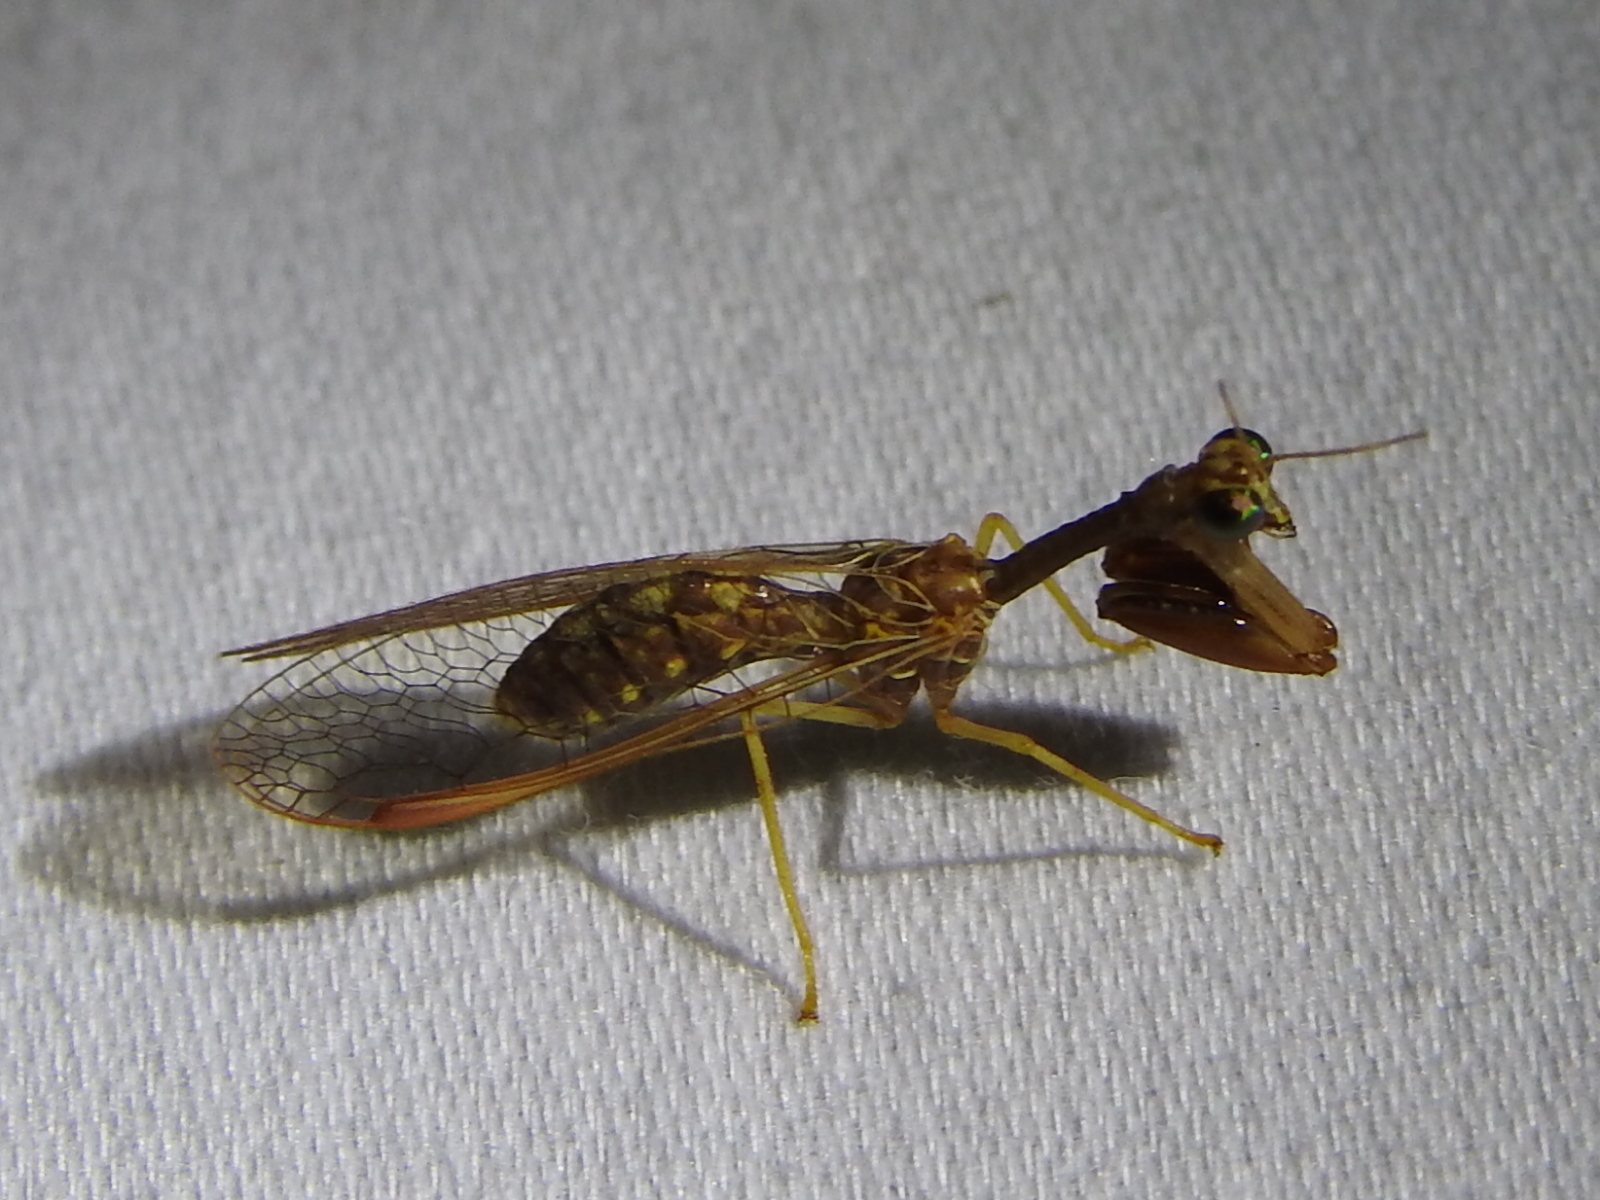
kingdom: Animalia
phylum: Arthropoda
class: Insecta
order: Neuroptera
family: Mantispidae
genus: Dicromantispa
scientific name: Dicromantispa sayi
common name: Say's mantidfly
